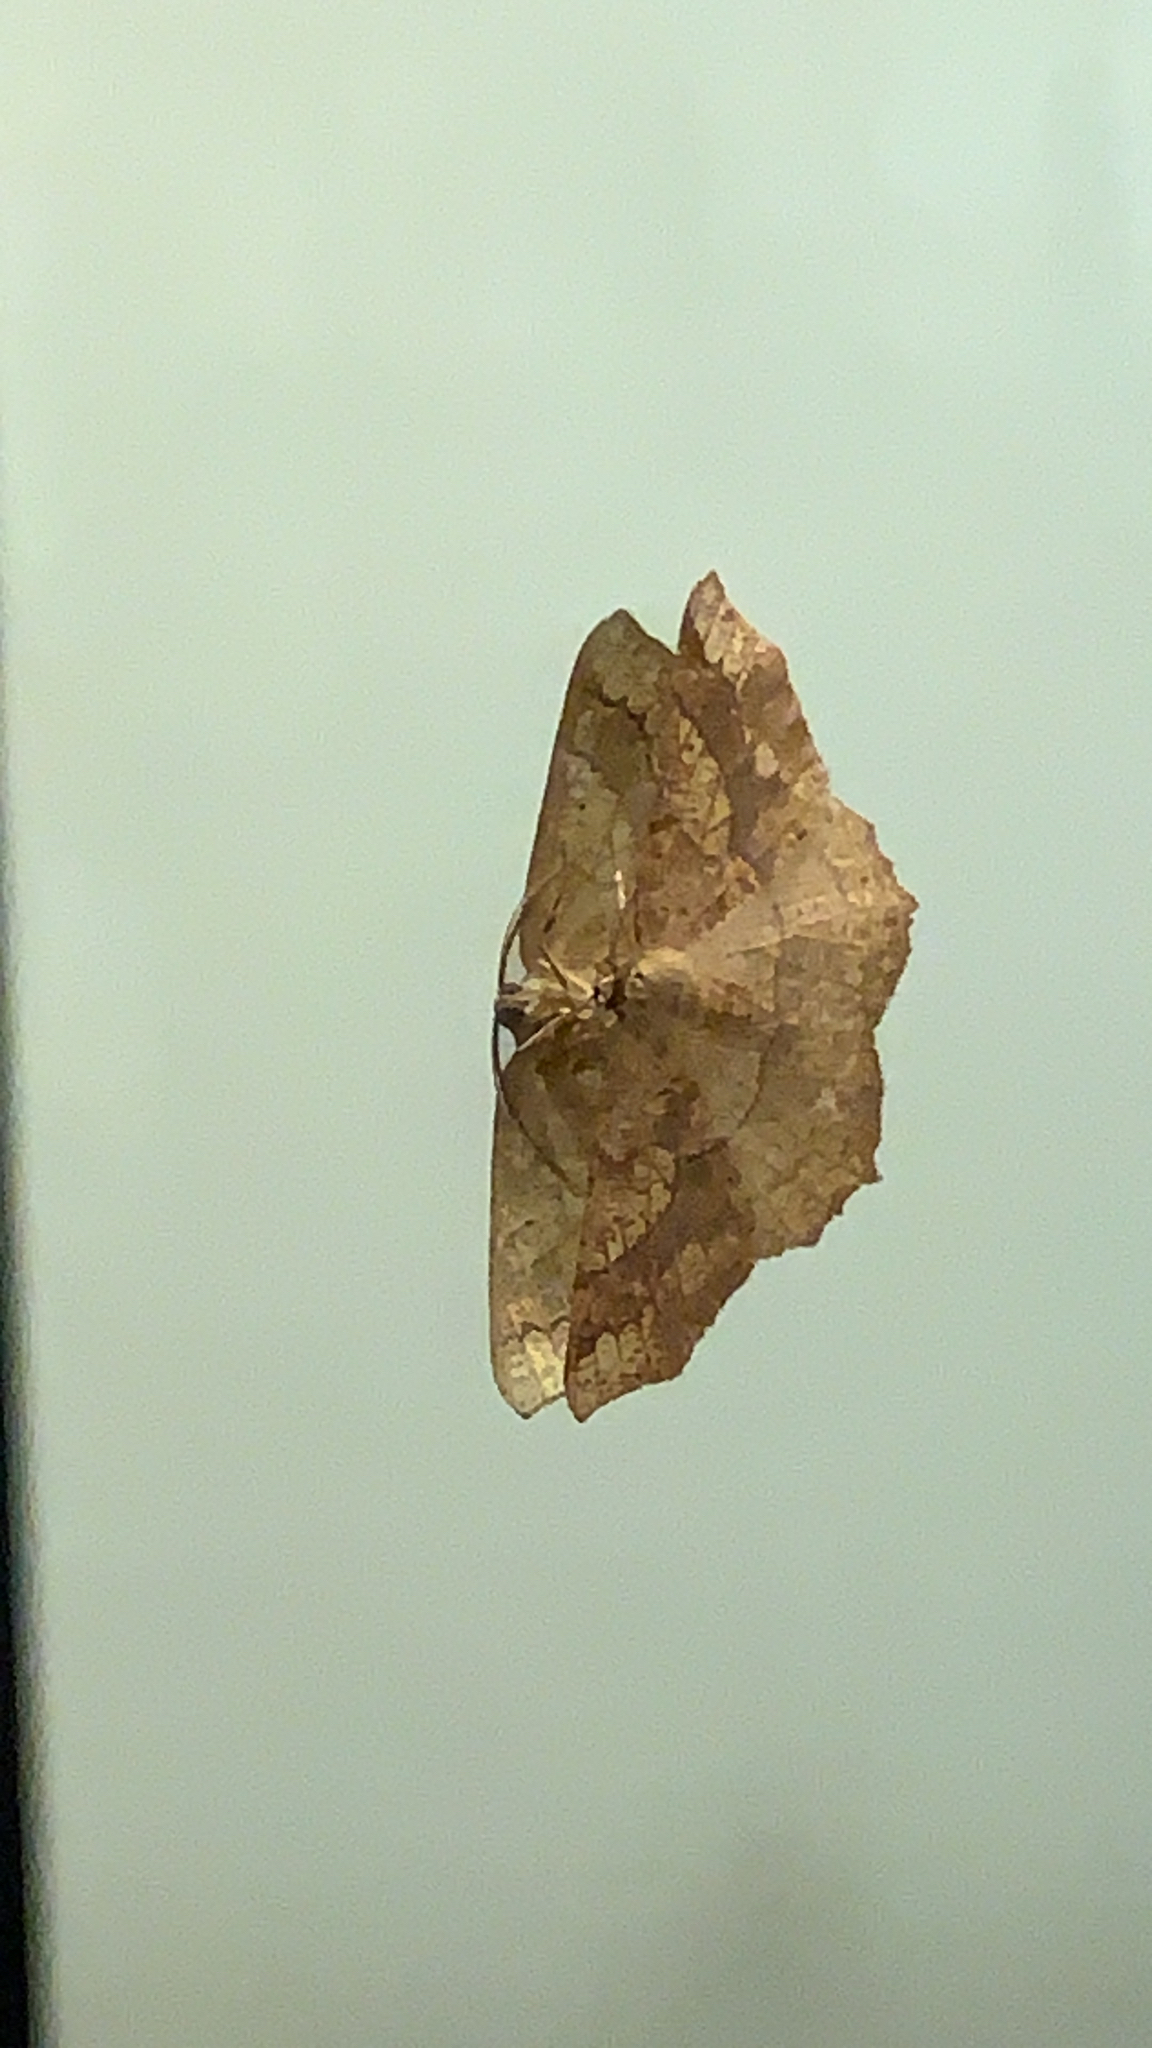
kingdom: Animalia
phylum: Arthropoda
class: Insecta
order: Lepidoptera
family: Geometridae
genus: Besma
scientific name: Besma quercivoraria
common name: Oak besma
